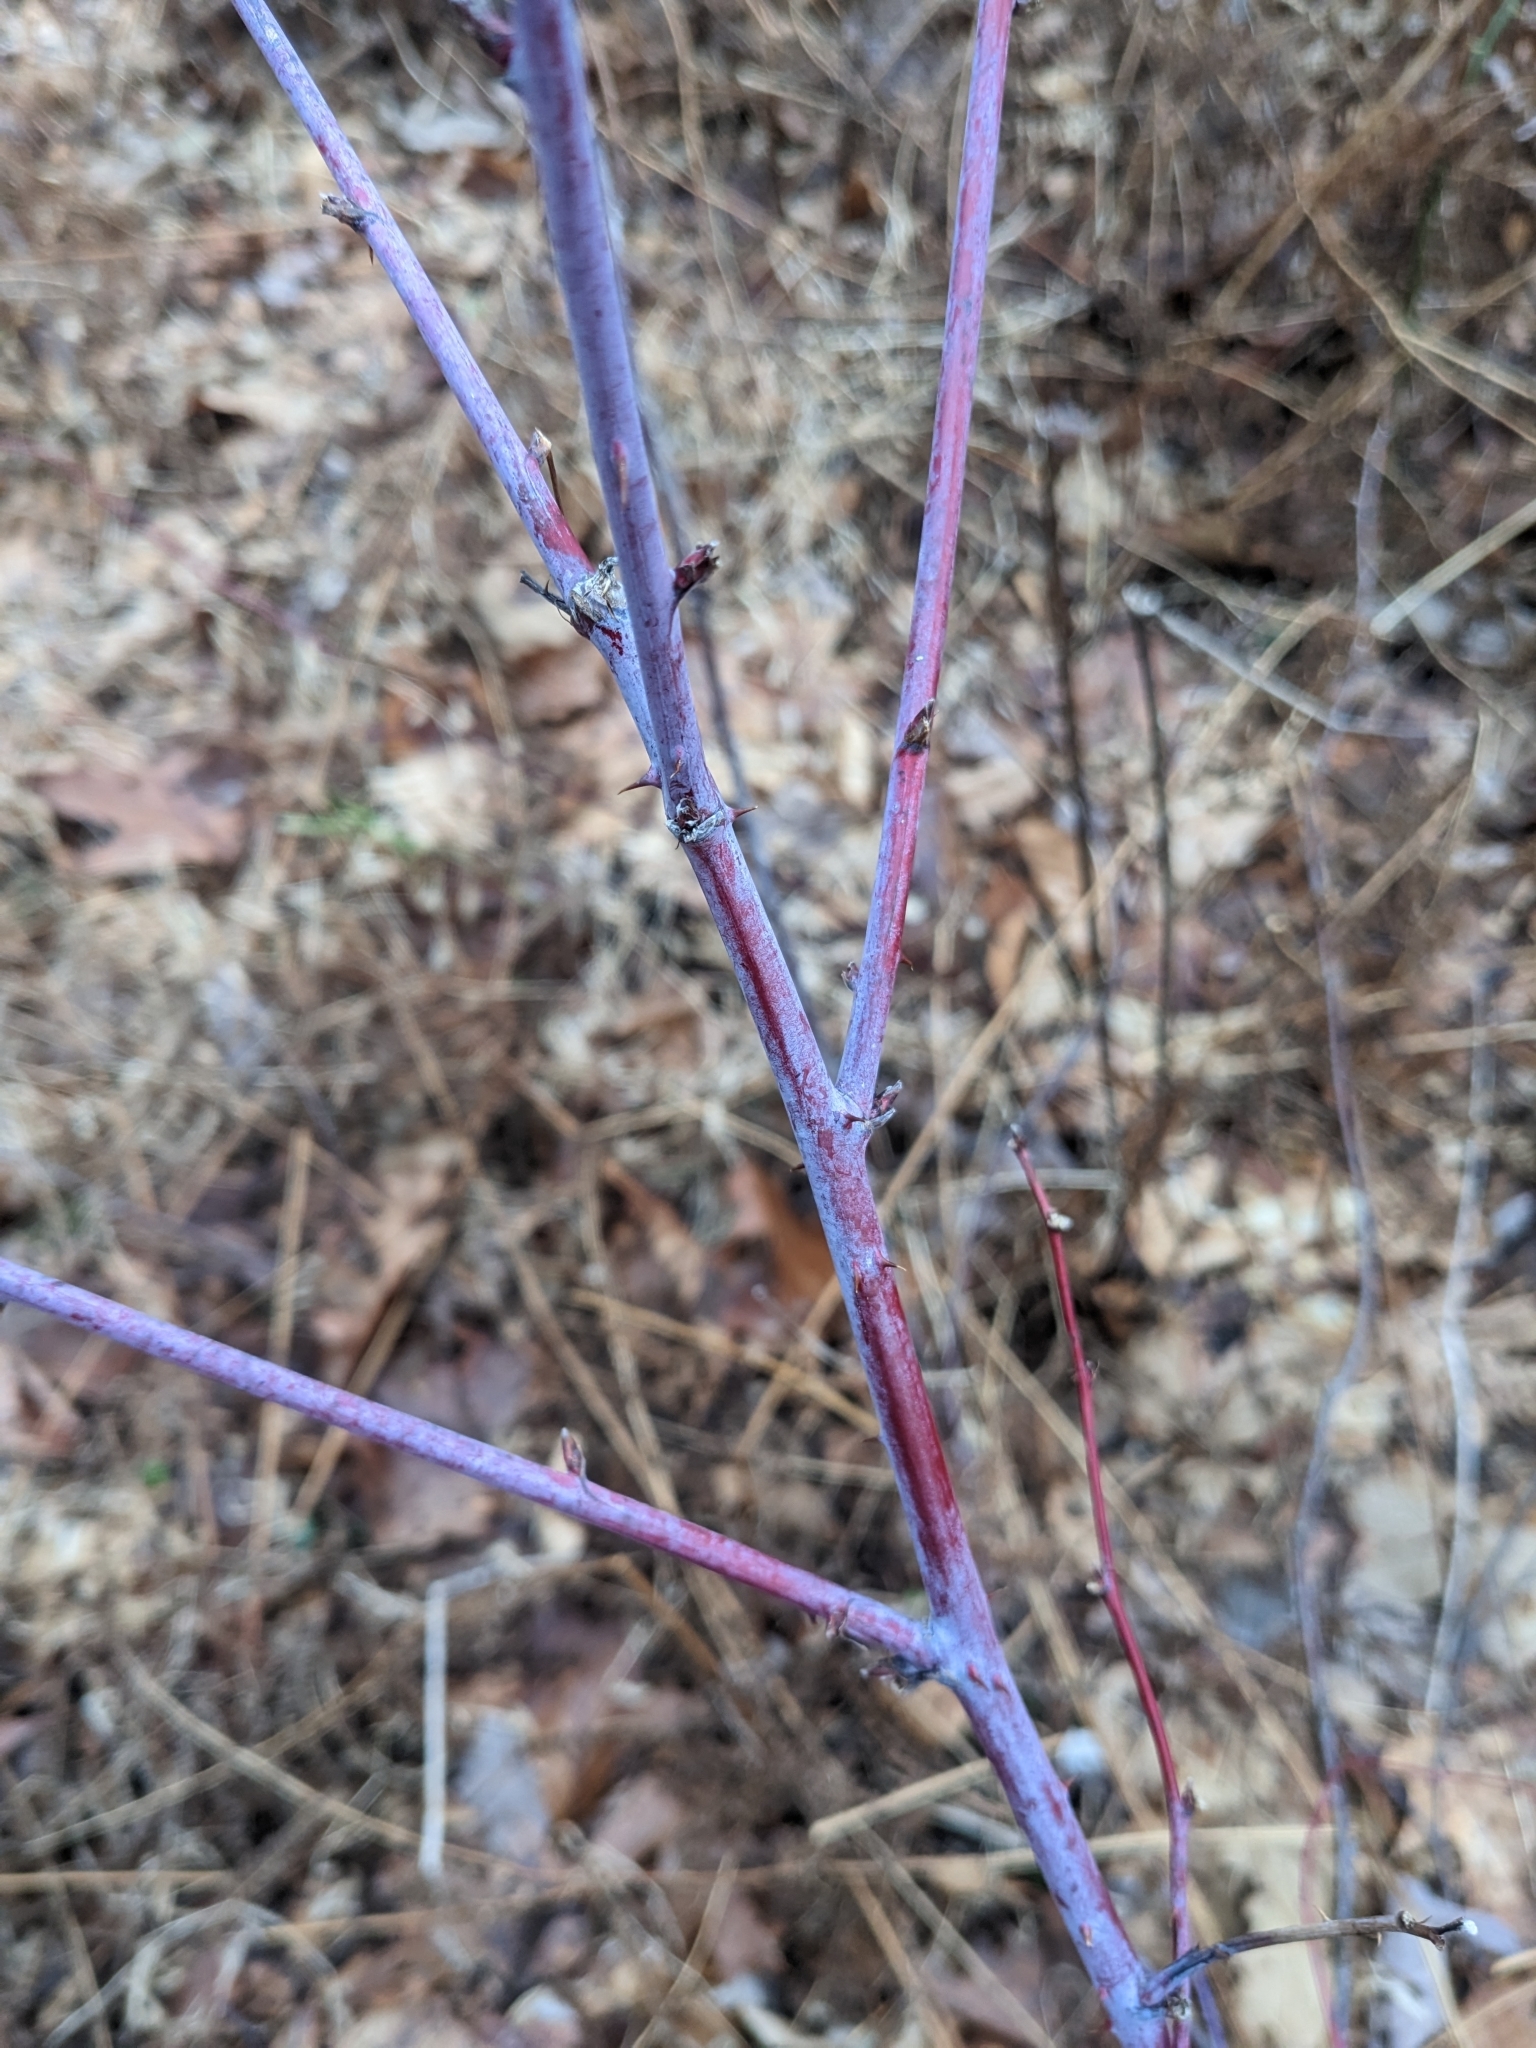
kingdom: Plantae
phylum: Tracheophyta
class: Magnoliopsida
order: Rosales
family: Rosaceae
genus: Rubus
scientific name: Rubus occidentalis
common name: Black raspberry
